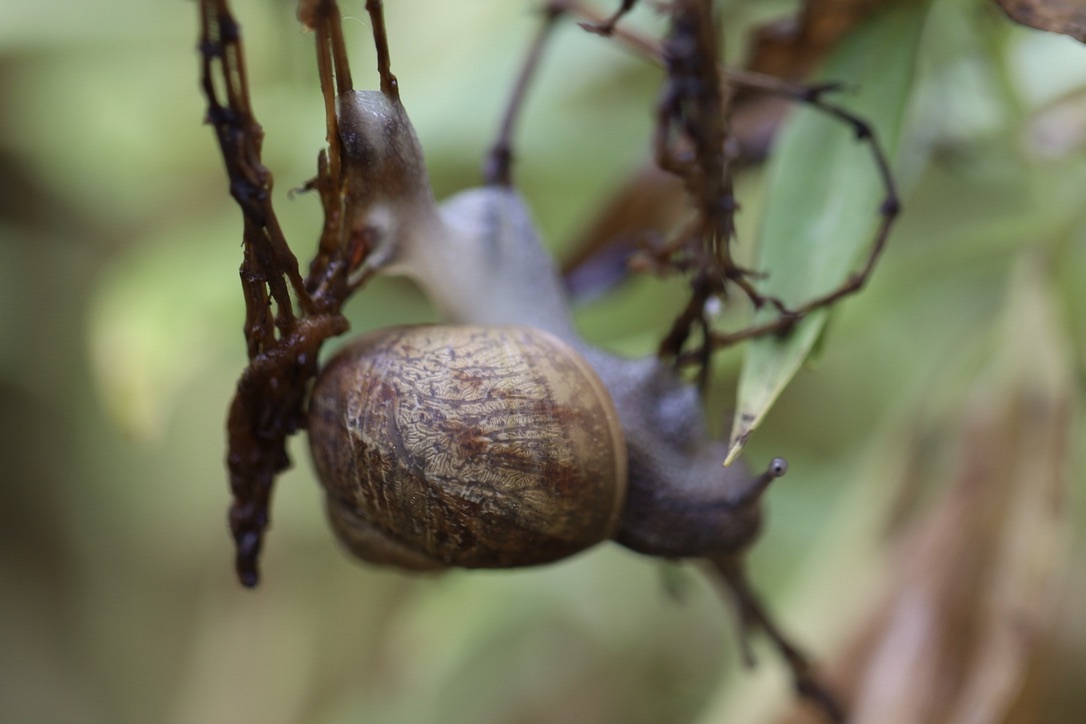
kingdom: Animalia
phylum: Mollusca
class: Gastropoda
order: Stylommatophora
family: Helicidae
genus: Cornu
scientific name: Cornu aspersum
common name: Brown garden snail
